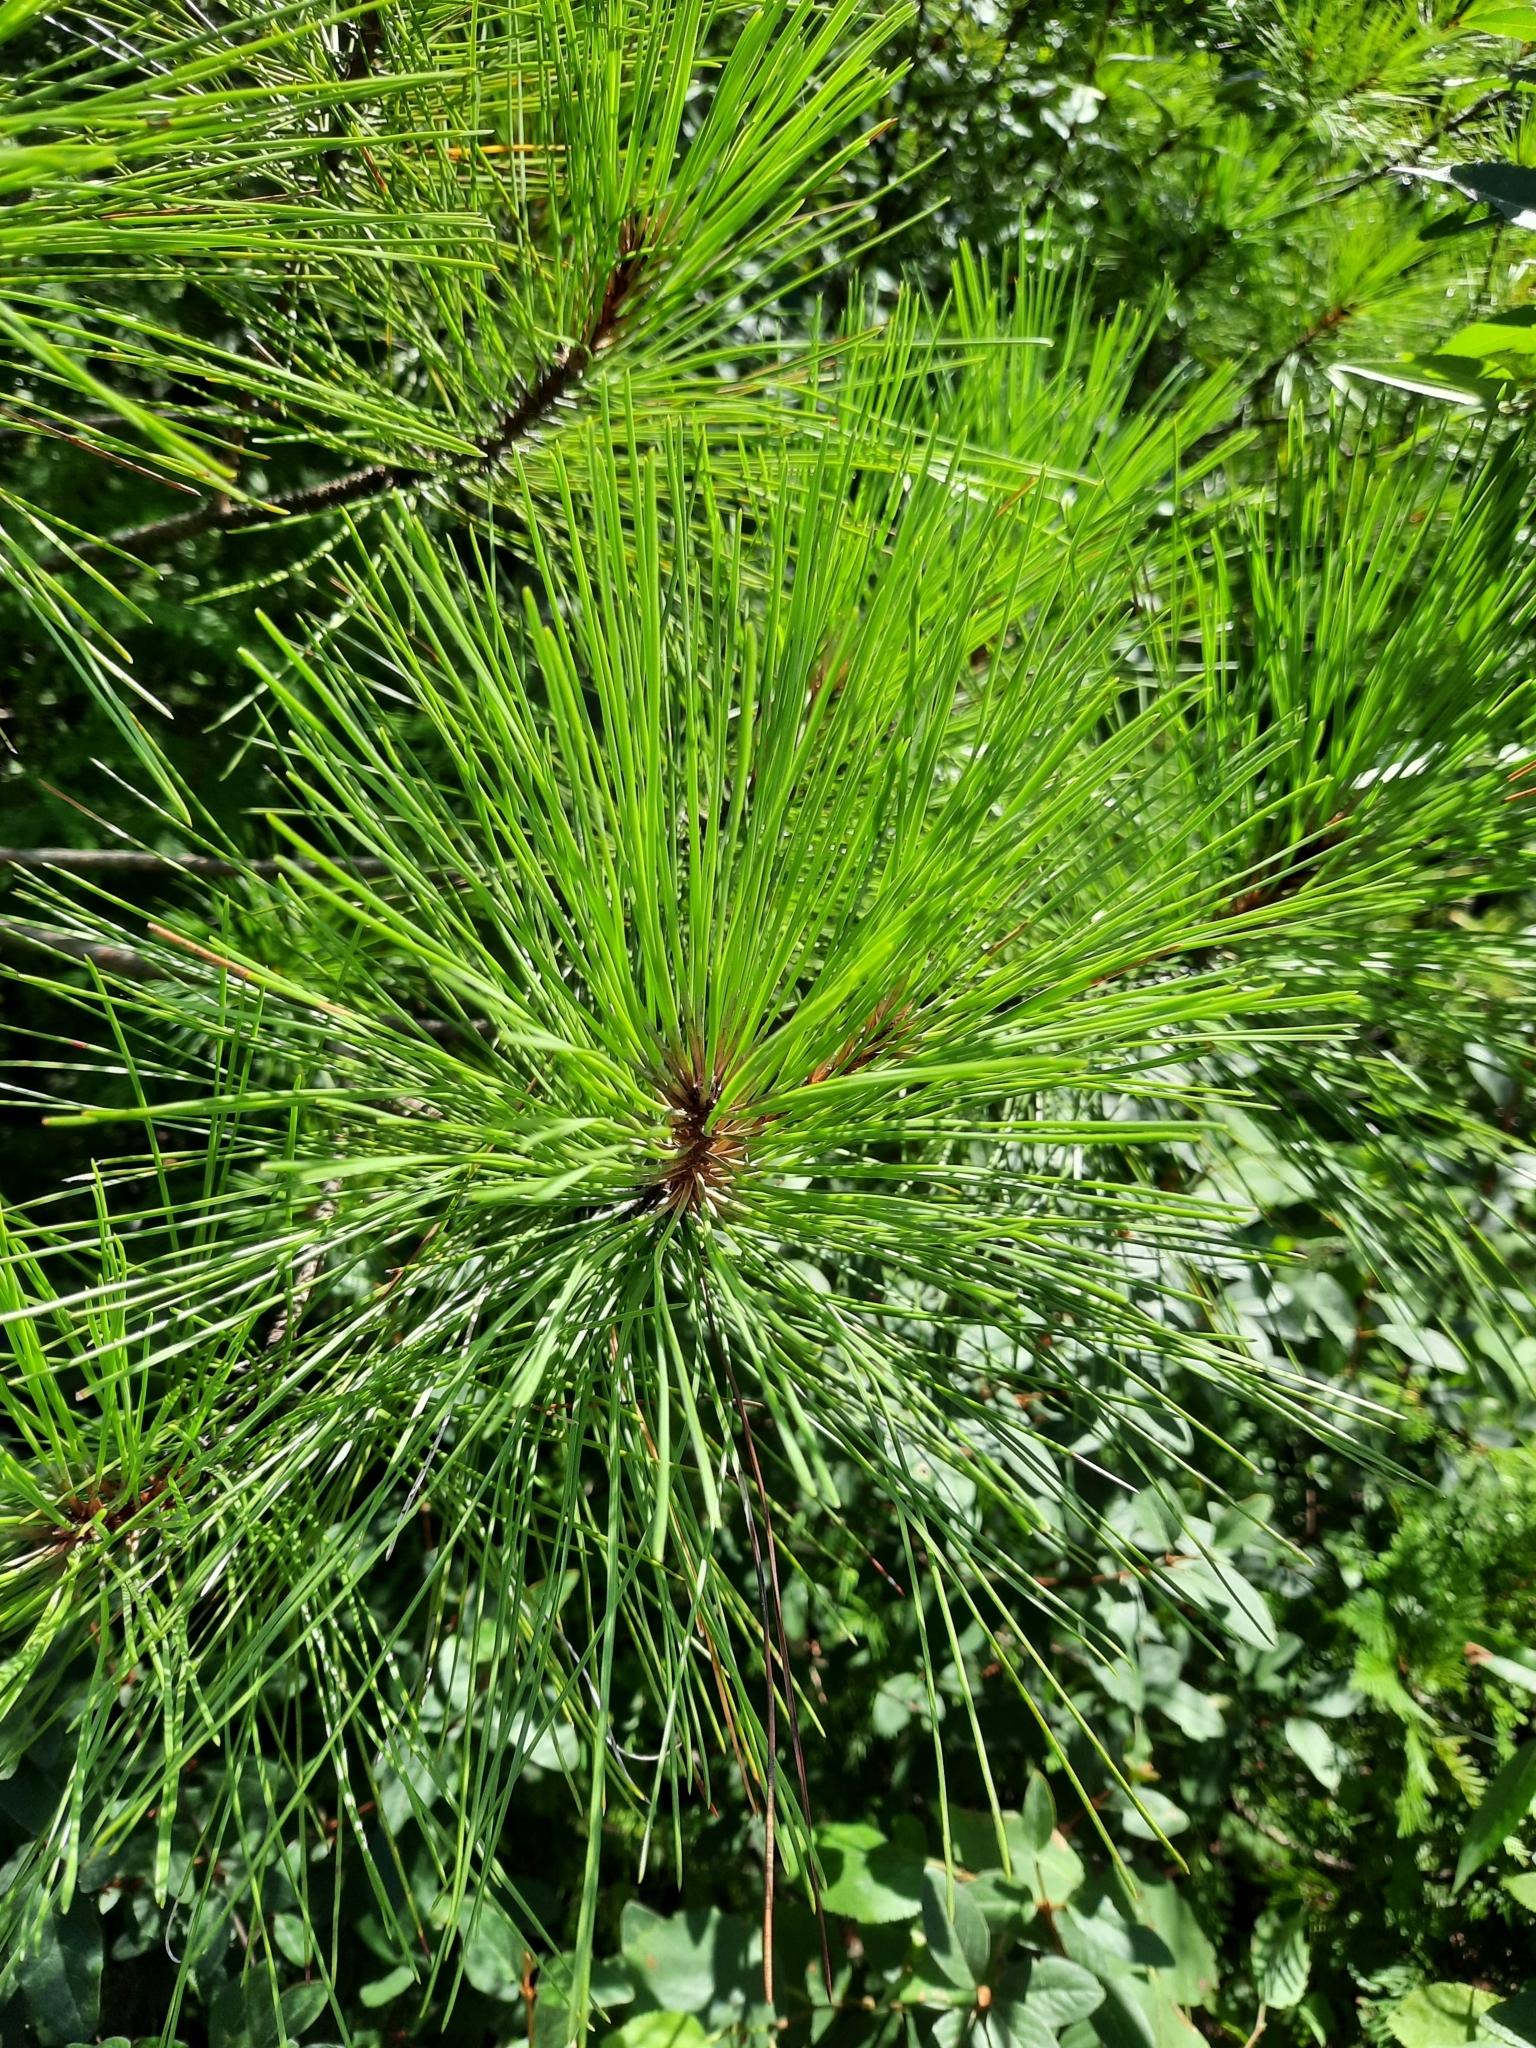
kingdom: Plantae
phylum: Tracheophyta
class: Pinopsida
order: Pinales
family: Pinaceae
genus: Pinus
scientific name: Pinus resinosa
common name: Norway pine
